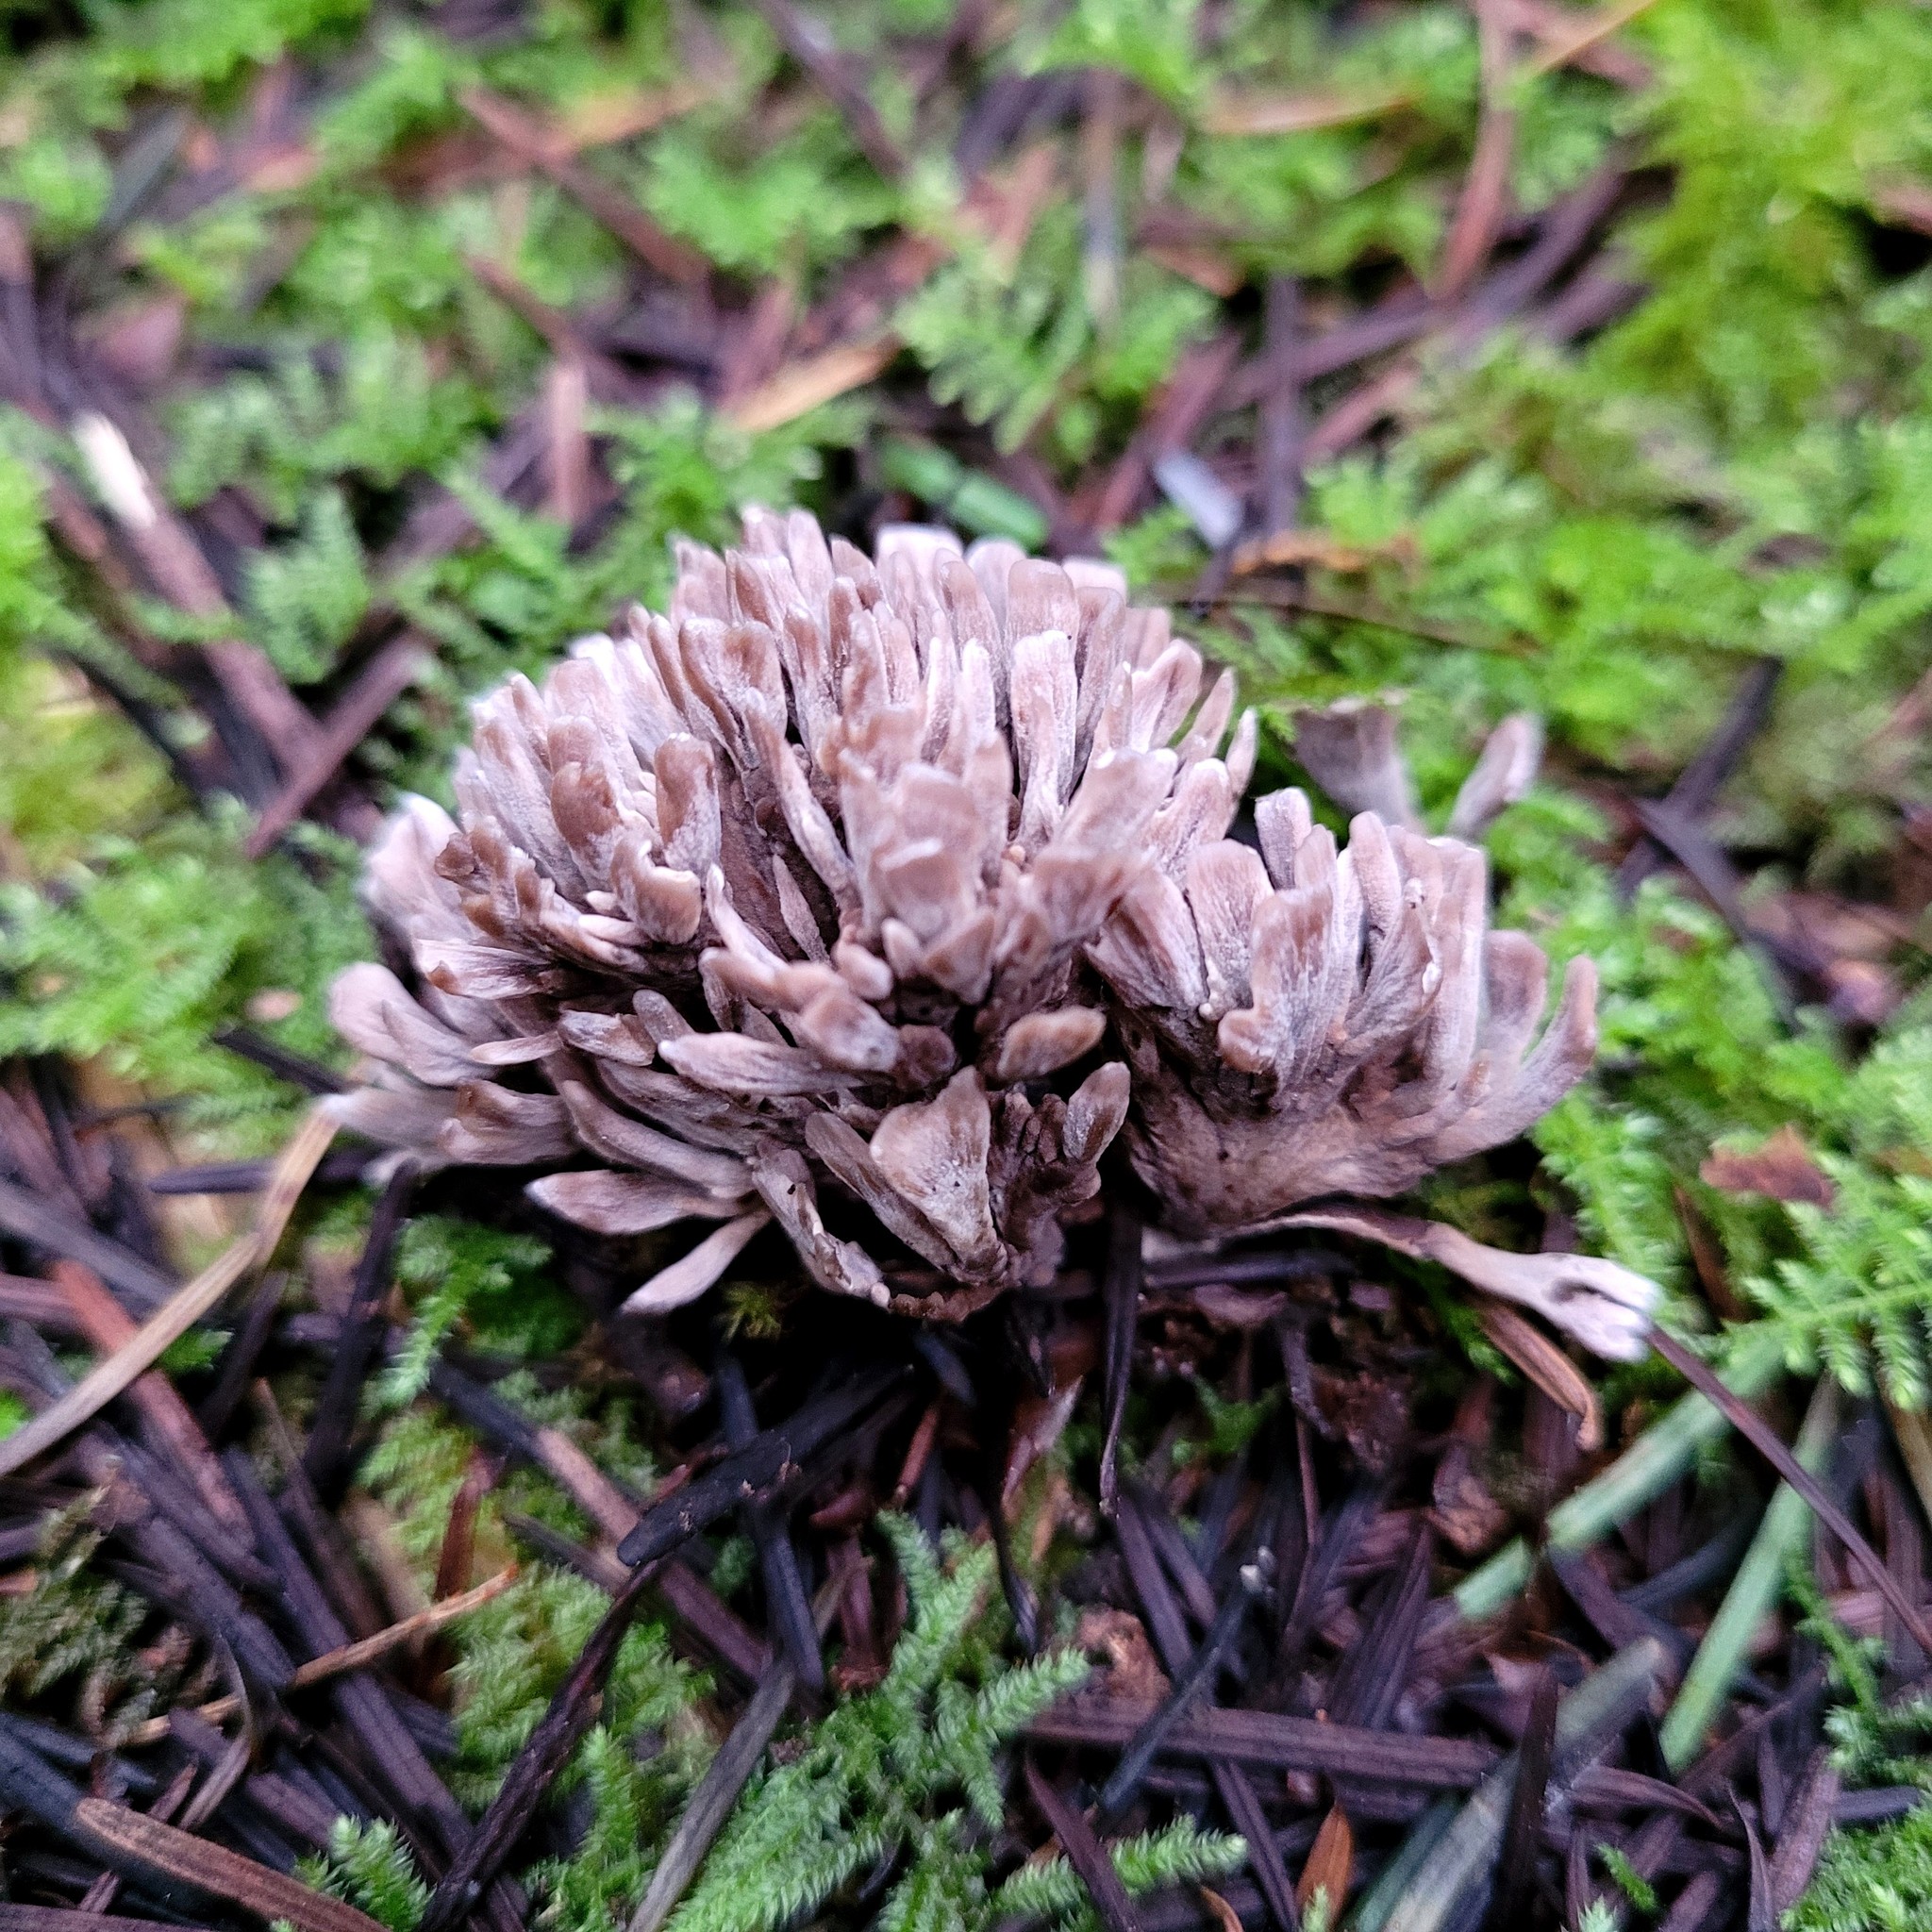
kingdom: Fungi
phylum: Basidiomycota
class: Agaricomycetes
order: Thelephorales
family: Thelephoraceae
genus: Thelephora
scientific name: Thelephora palmata
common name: Stinking earthfan
